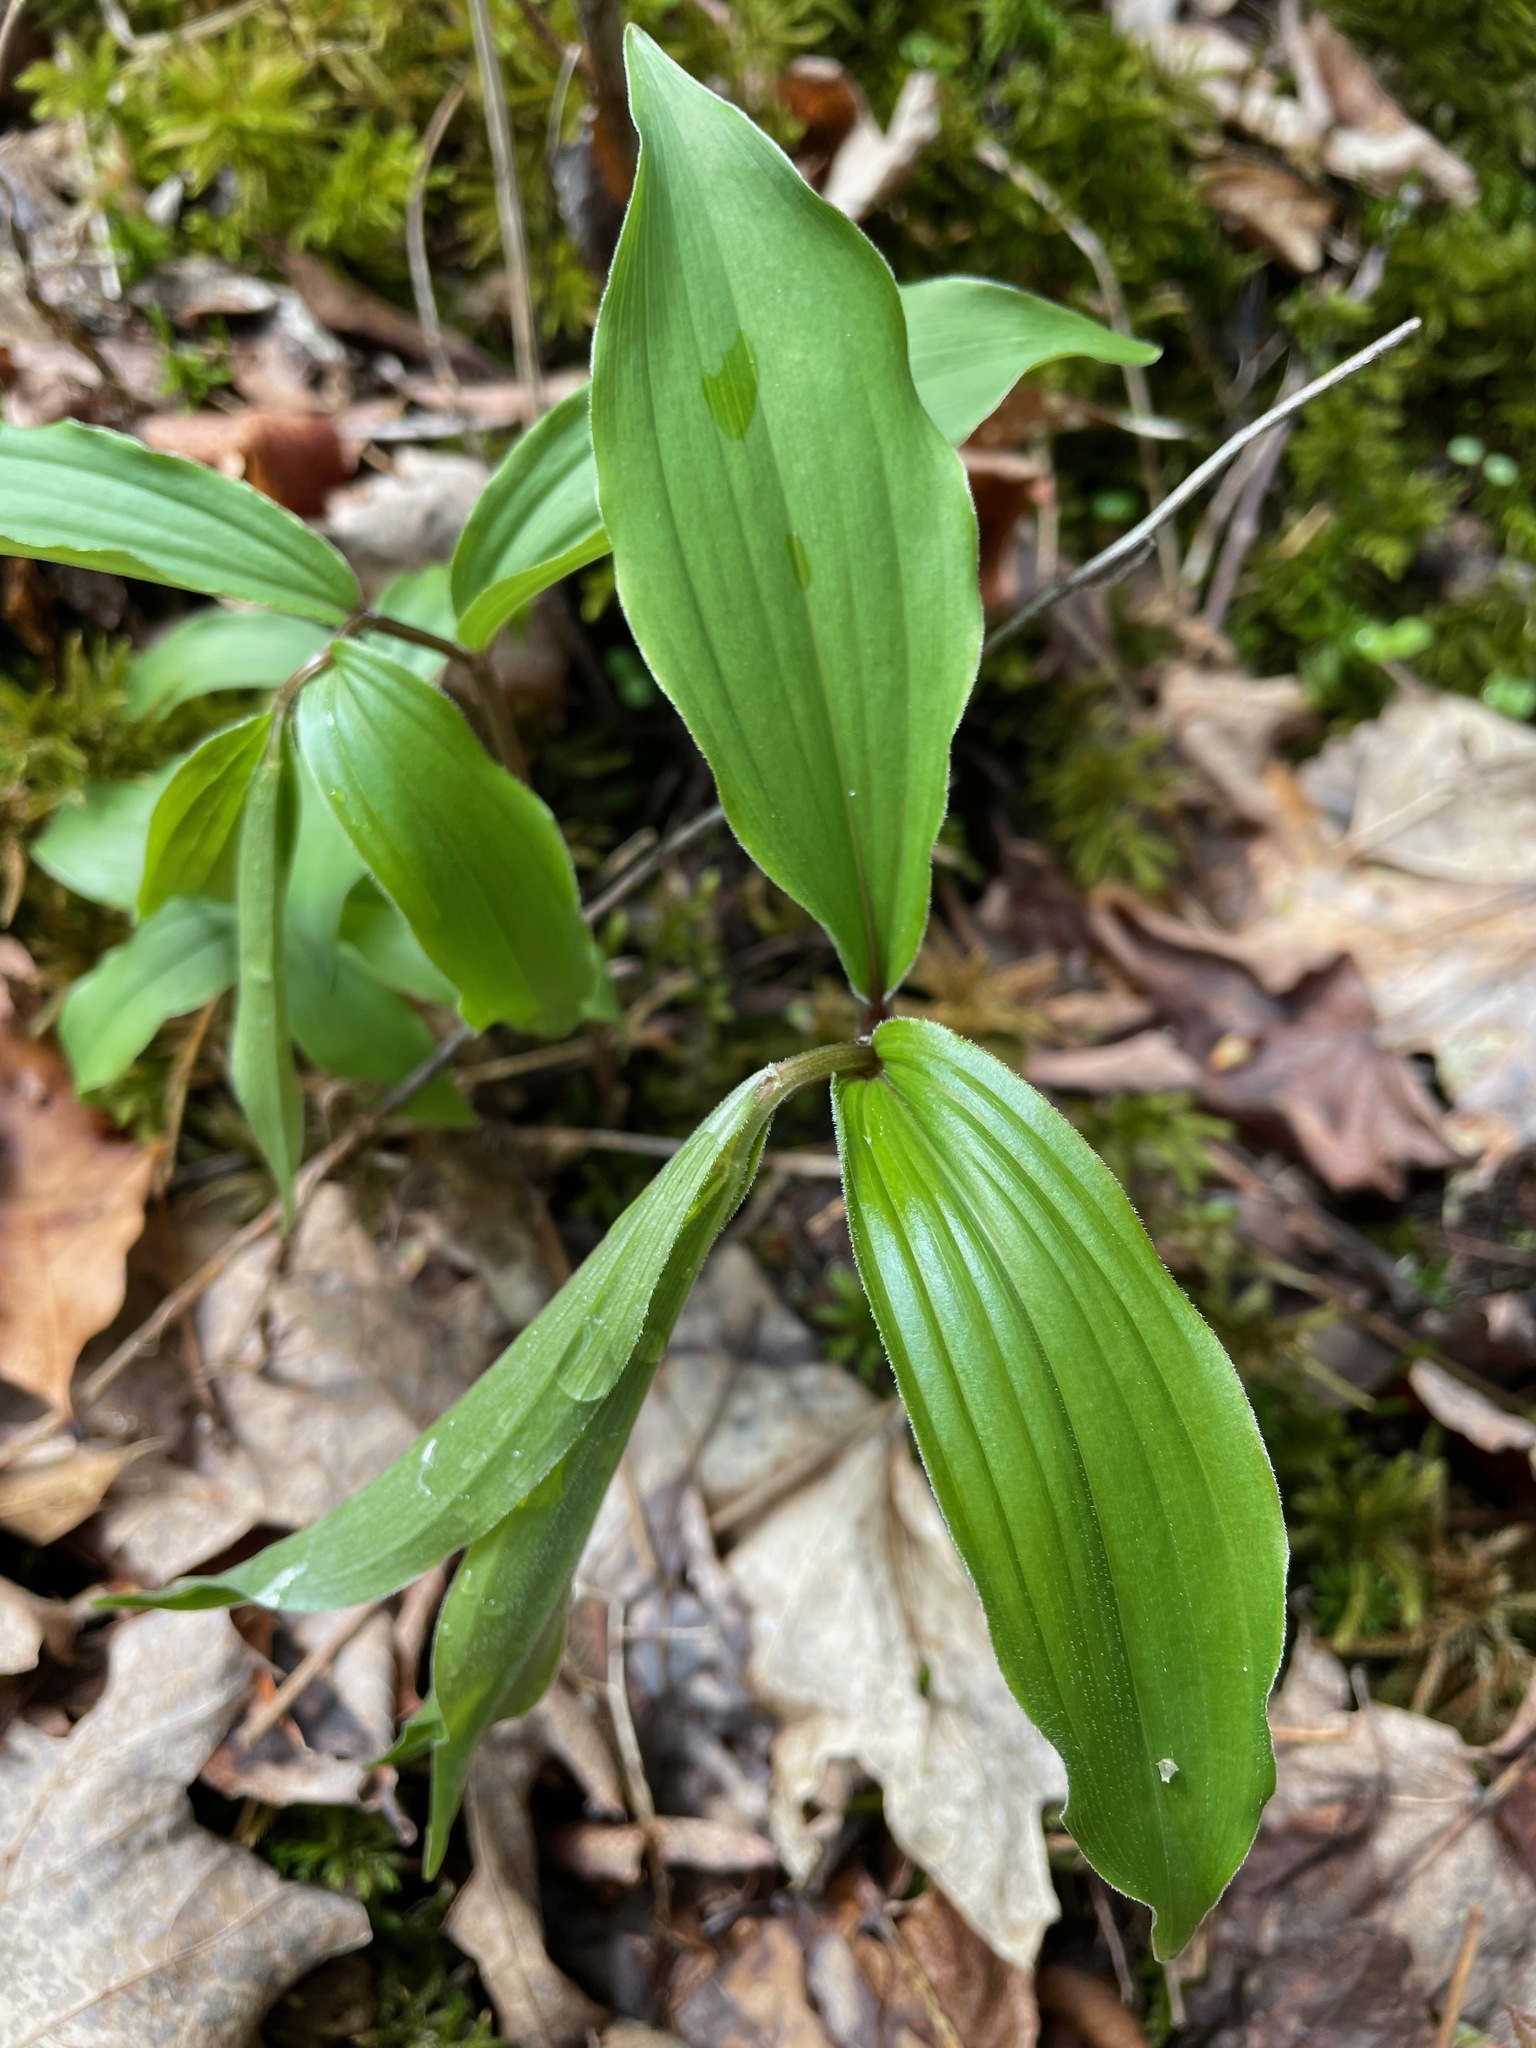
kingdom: Plantae
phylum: Tracheophyta
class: Liliopsida
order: Asparagales
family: Asparagaceae
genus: Maianthemum
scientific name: Maianthemum racemosum
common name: False spikenard
